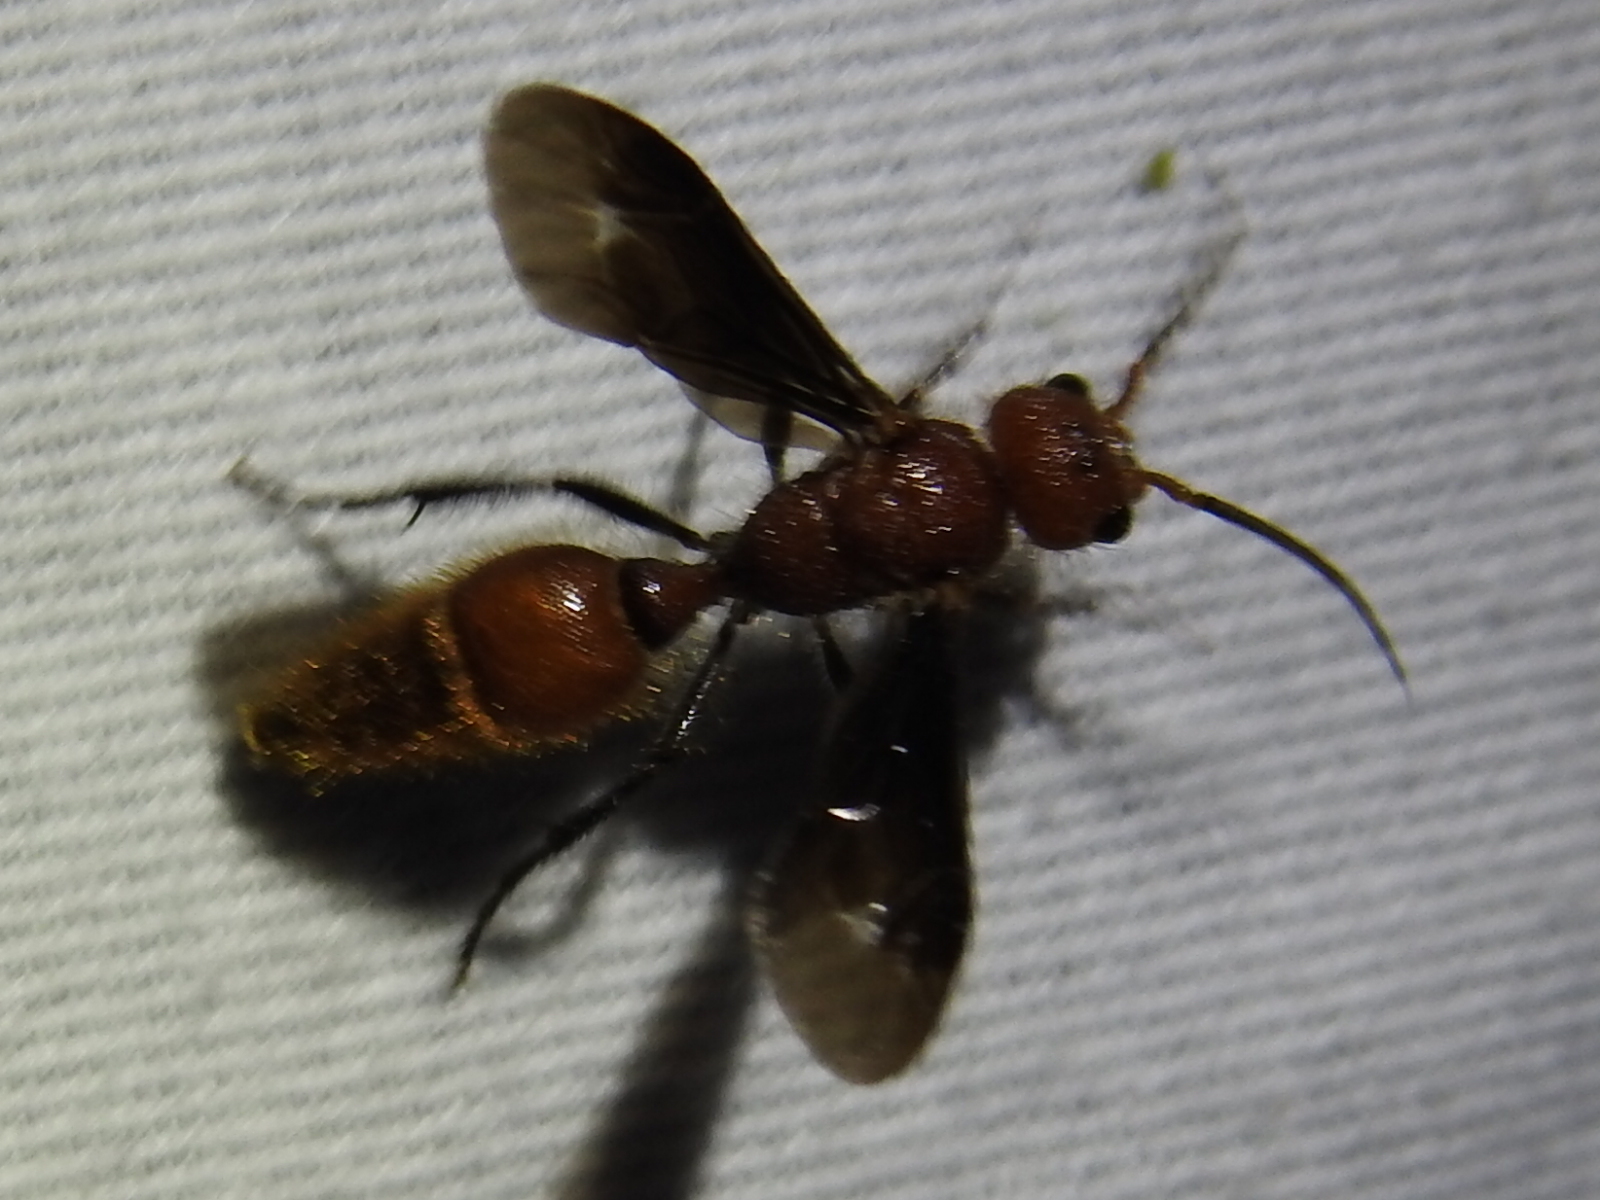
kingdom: Animalia
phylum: Arthropoda
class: Insecta
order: Hymenoptera
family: Mutillidae
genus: Sphaeropthalma
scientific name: Sphaeropthalma
